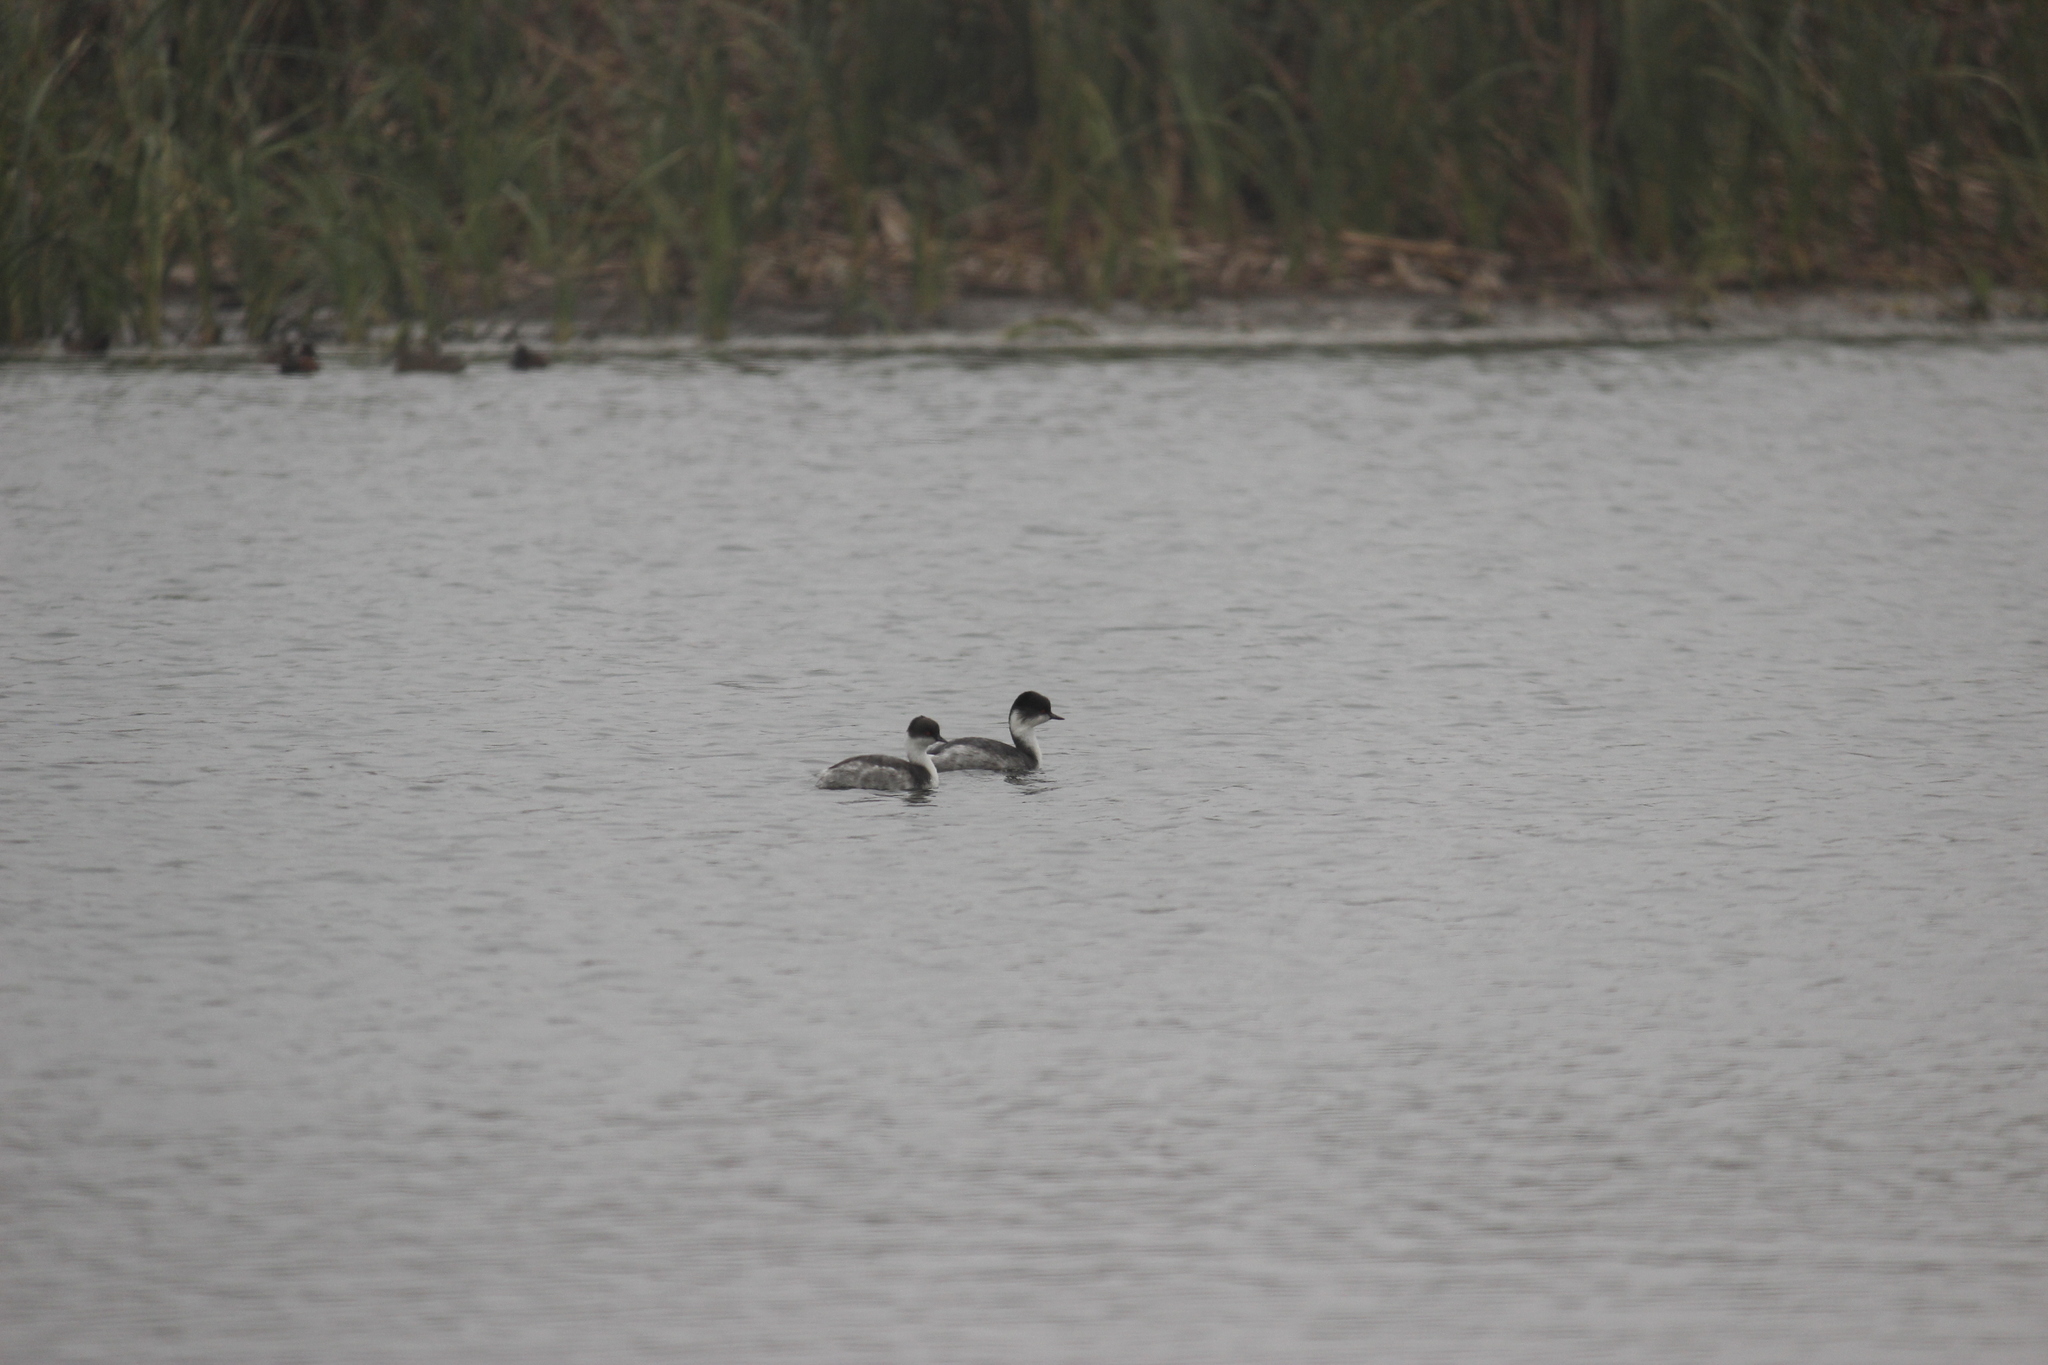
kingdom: Animalia
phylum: Chordata
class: Aves
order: Podicipediformes
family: Podicipedidae
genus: Podiceps
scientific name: Podiceps occipitalis
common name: Silvery grebe
